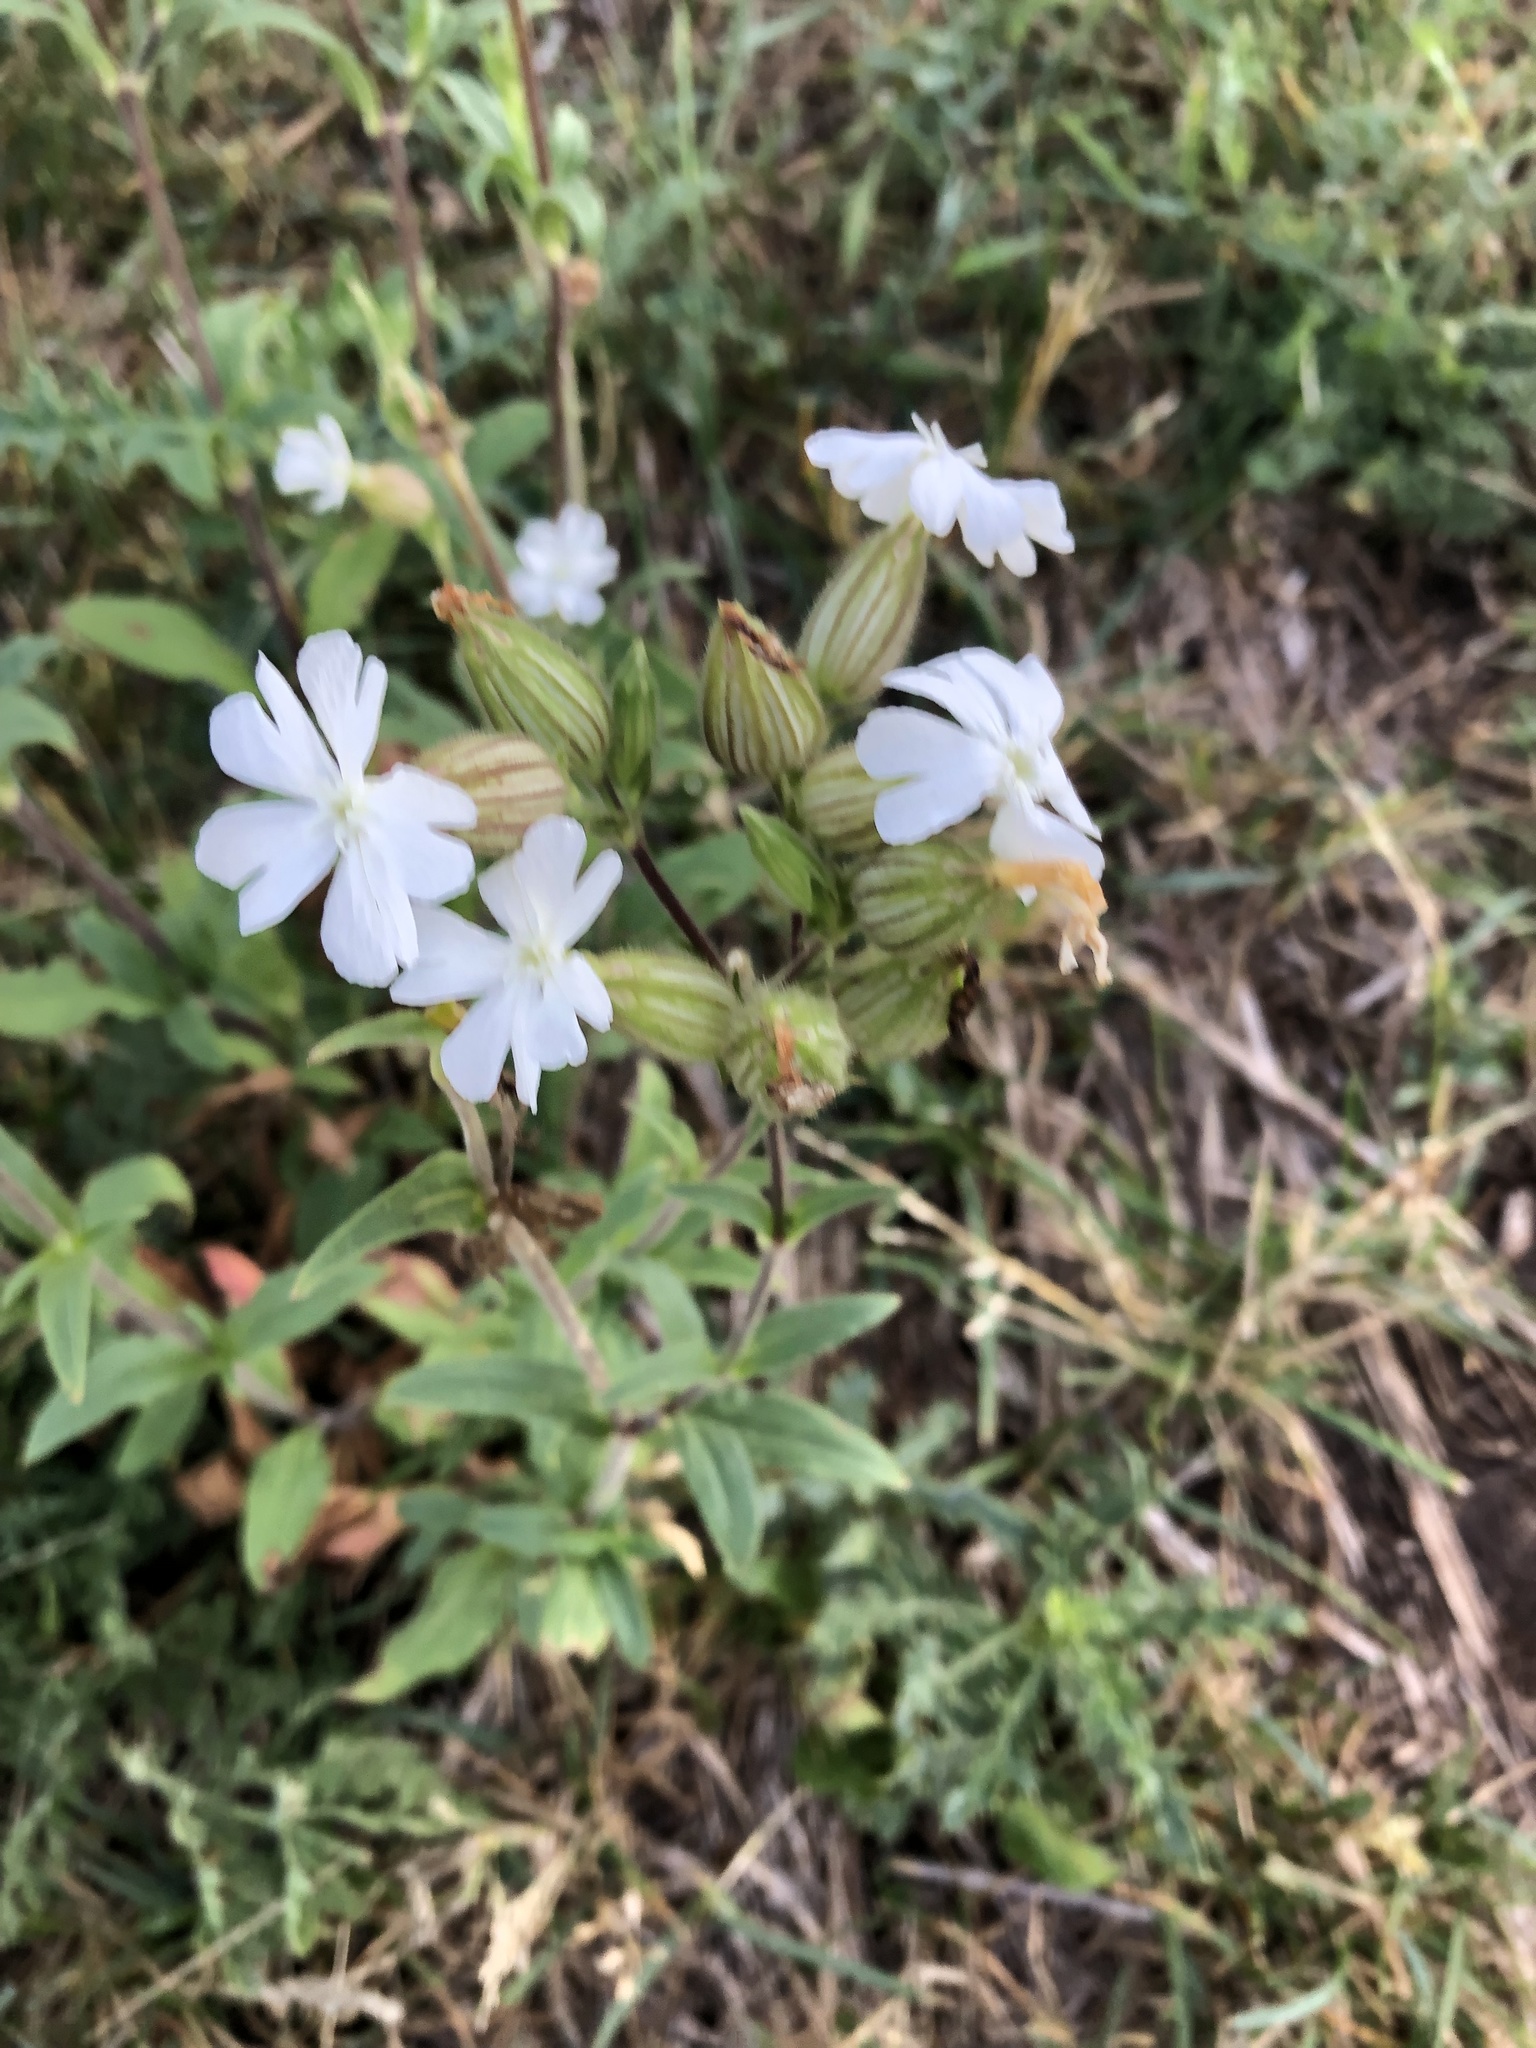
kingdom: Plantae
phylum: Tracheophyta
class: Magnoliopsida
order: Caryophyllales
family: Caryophyllaceae
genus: Silene
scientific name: Silene latifolia
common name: White campion
